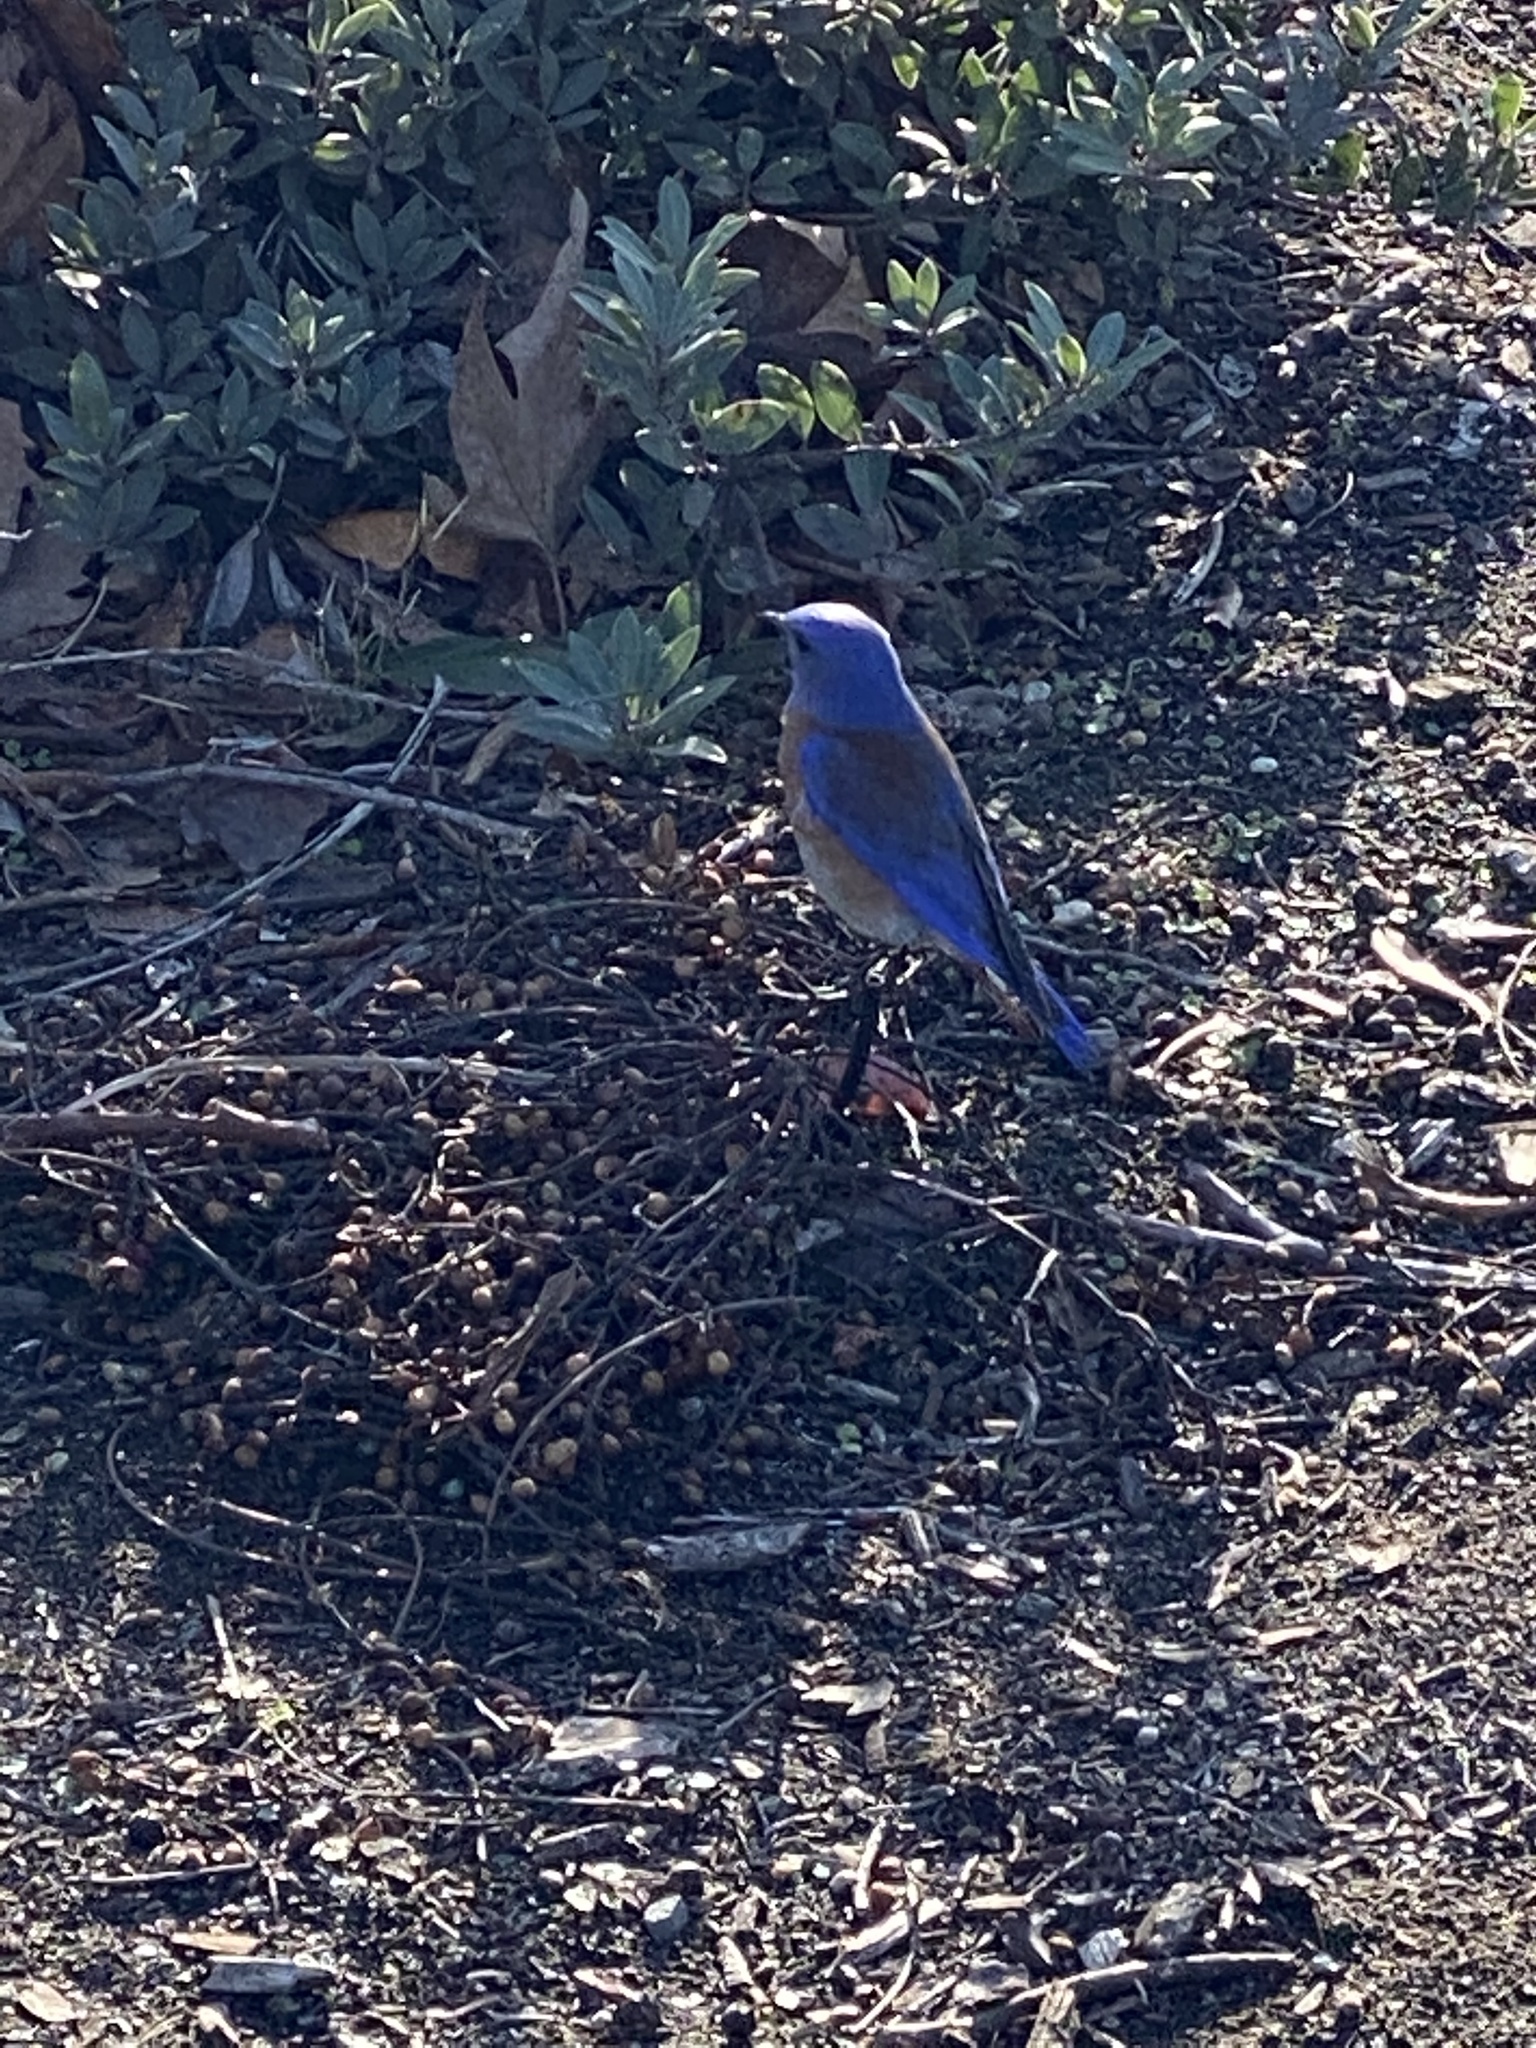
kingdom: Animalia
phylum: Chordata
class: Aves
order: Passeriformes
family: Turdidae
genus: Sialia
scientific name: Sialia mexicana
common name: Western bluebird
